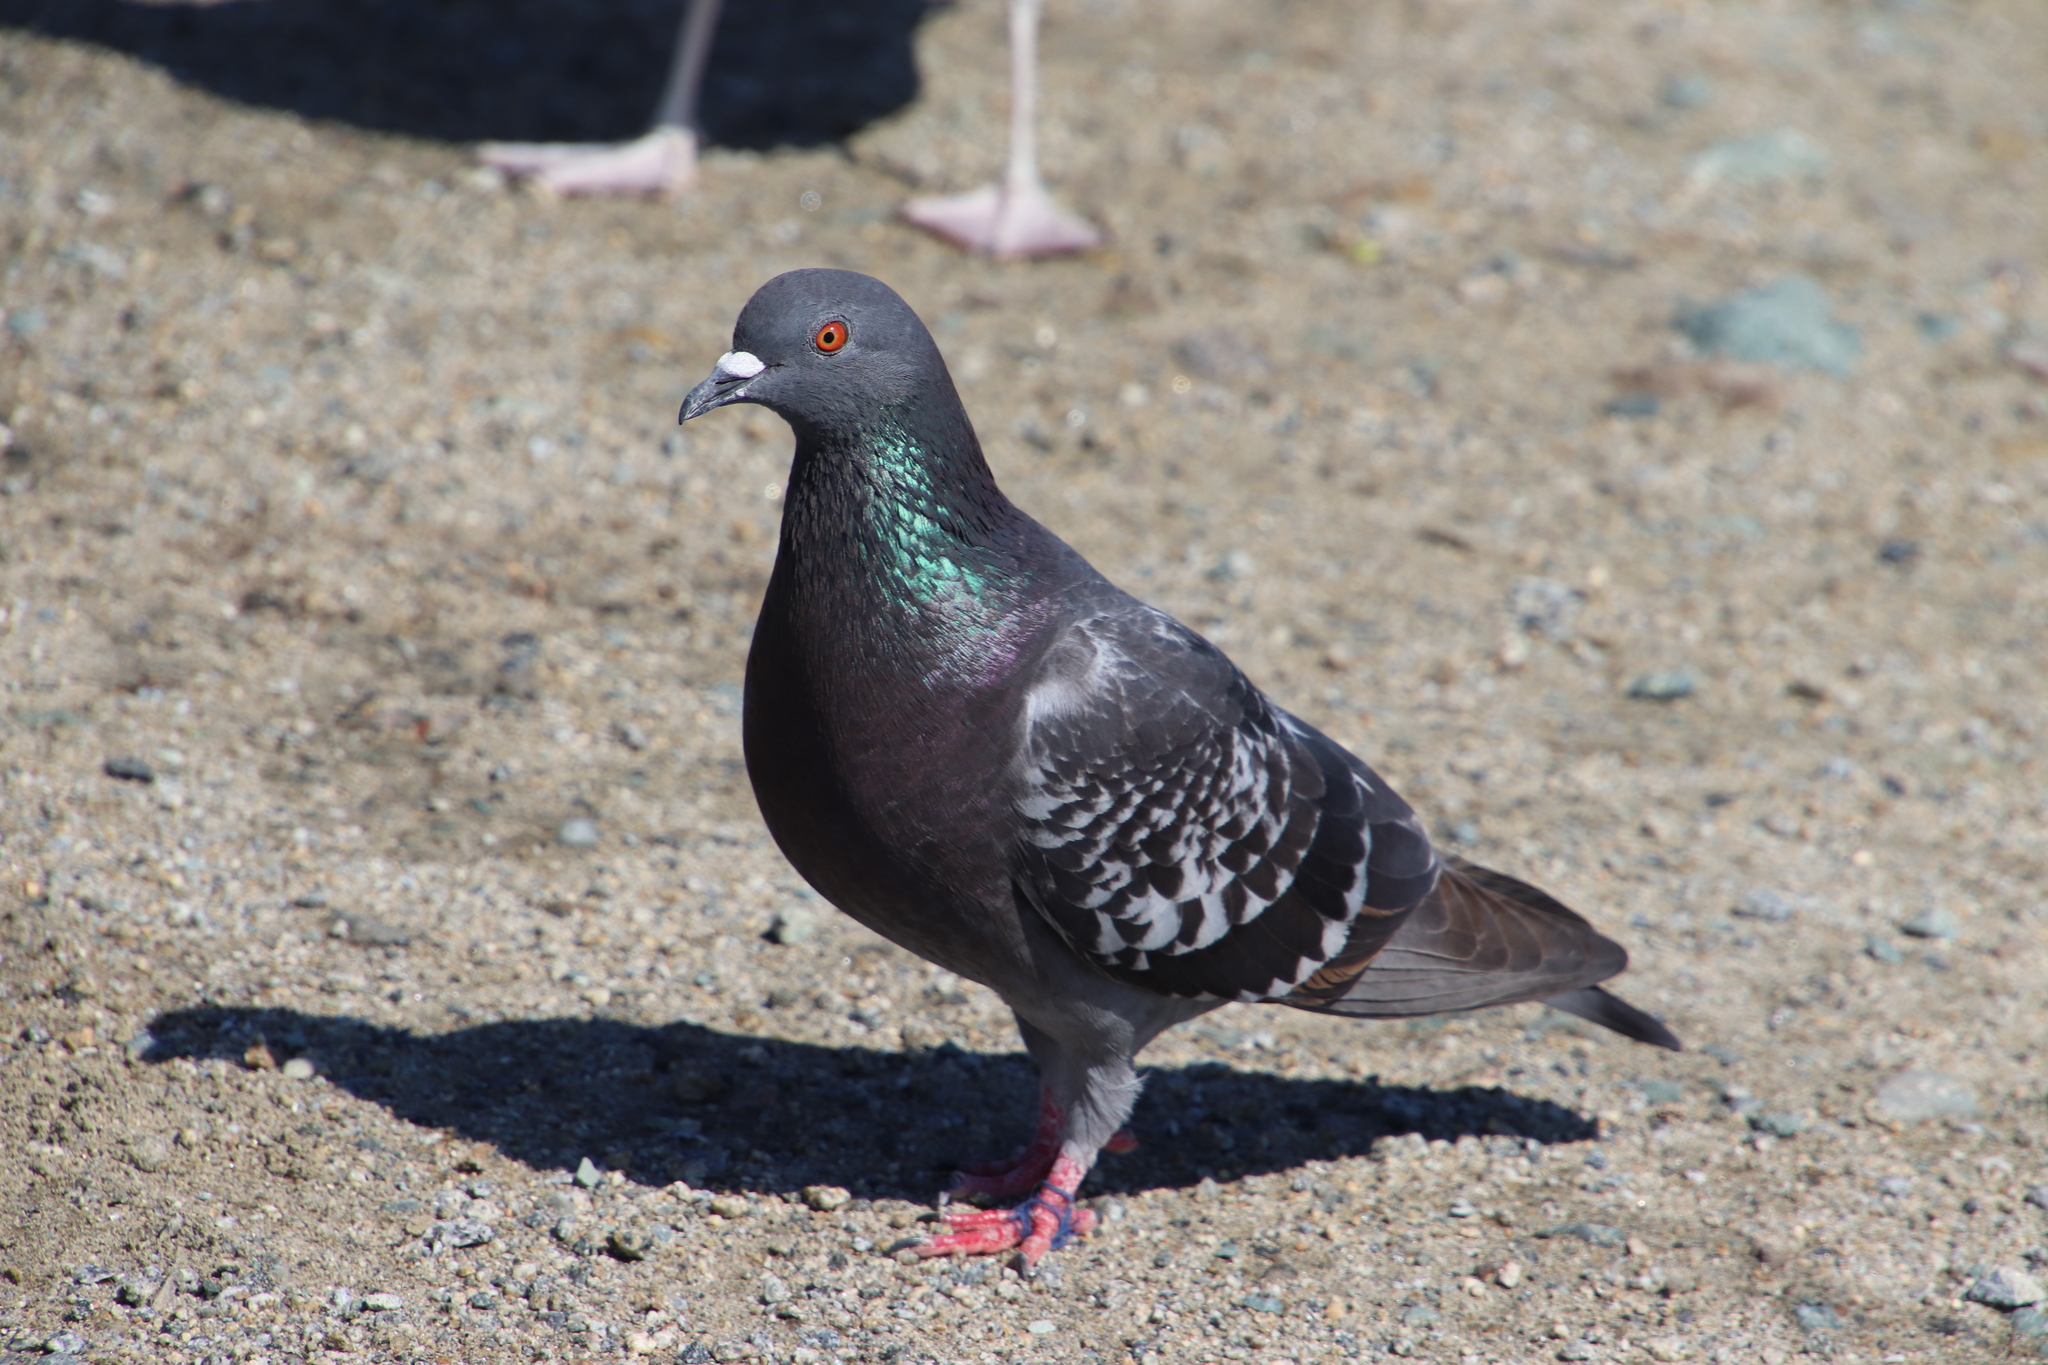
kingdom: Animalia
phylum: Chordata
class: Aves
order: Columbiformes
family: Columbidae
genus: Columba
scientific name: Columba livia
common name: Rock pigeon
